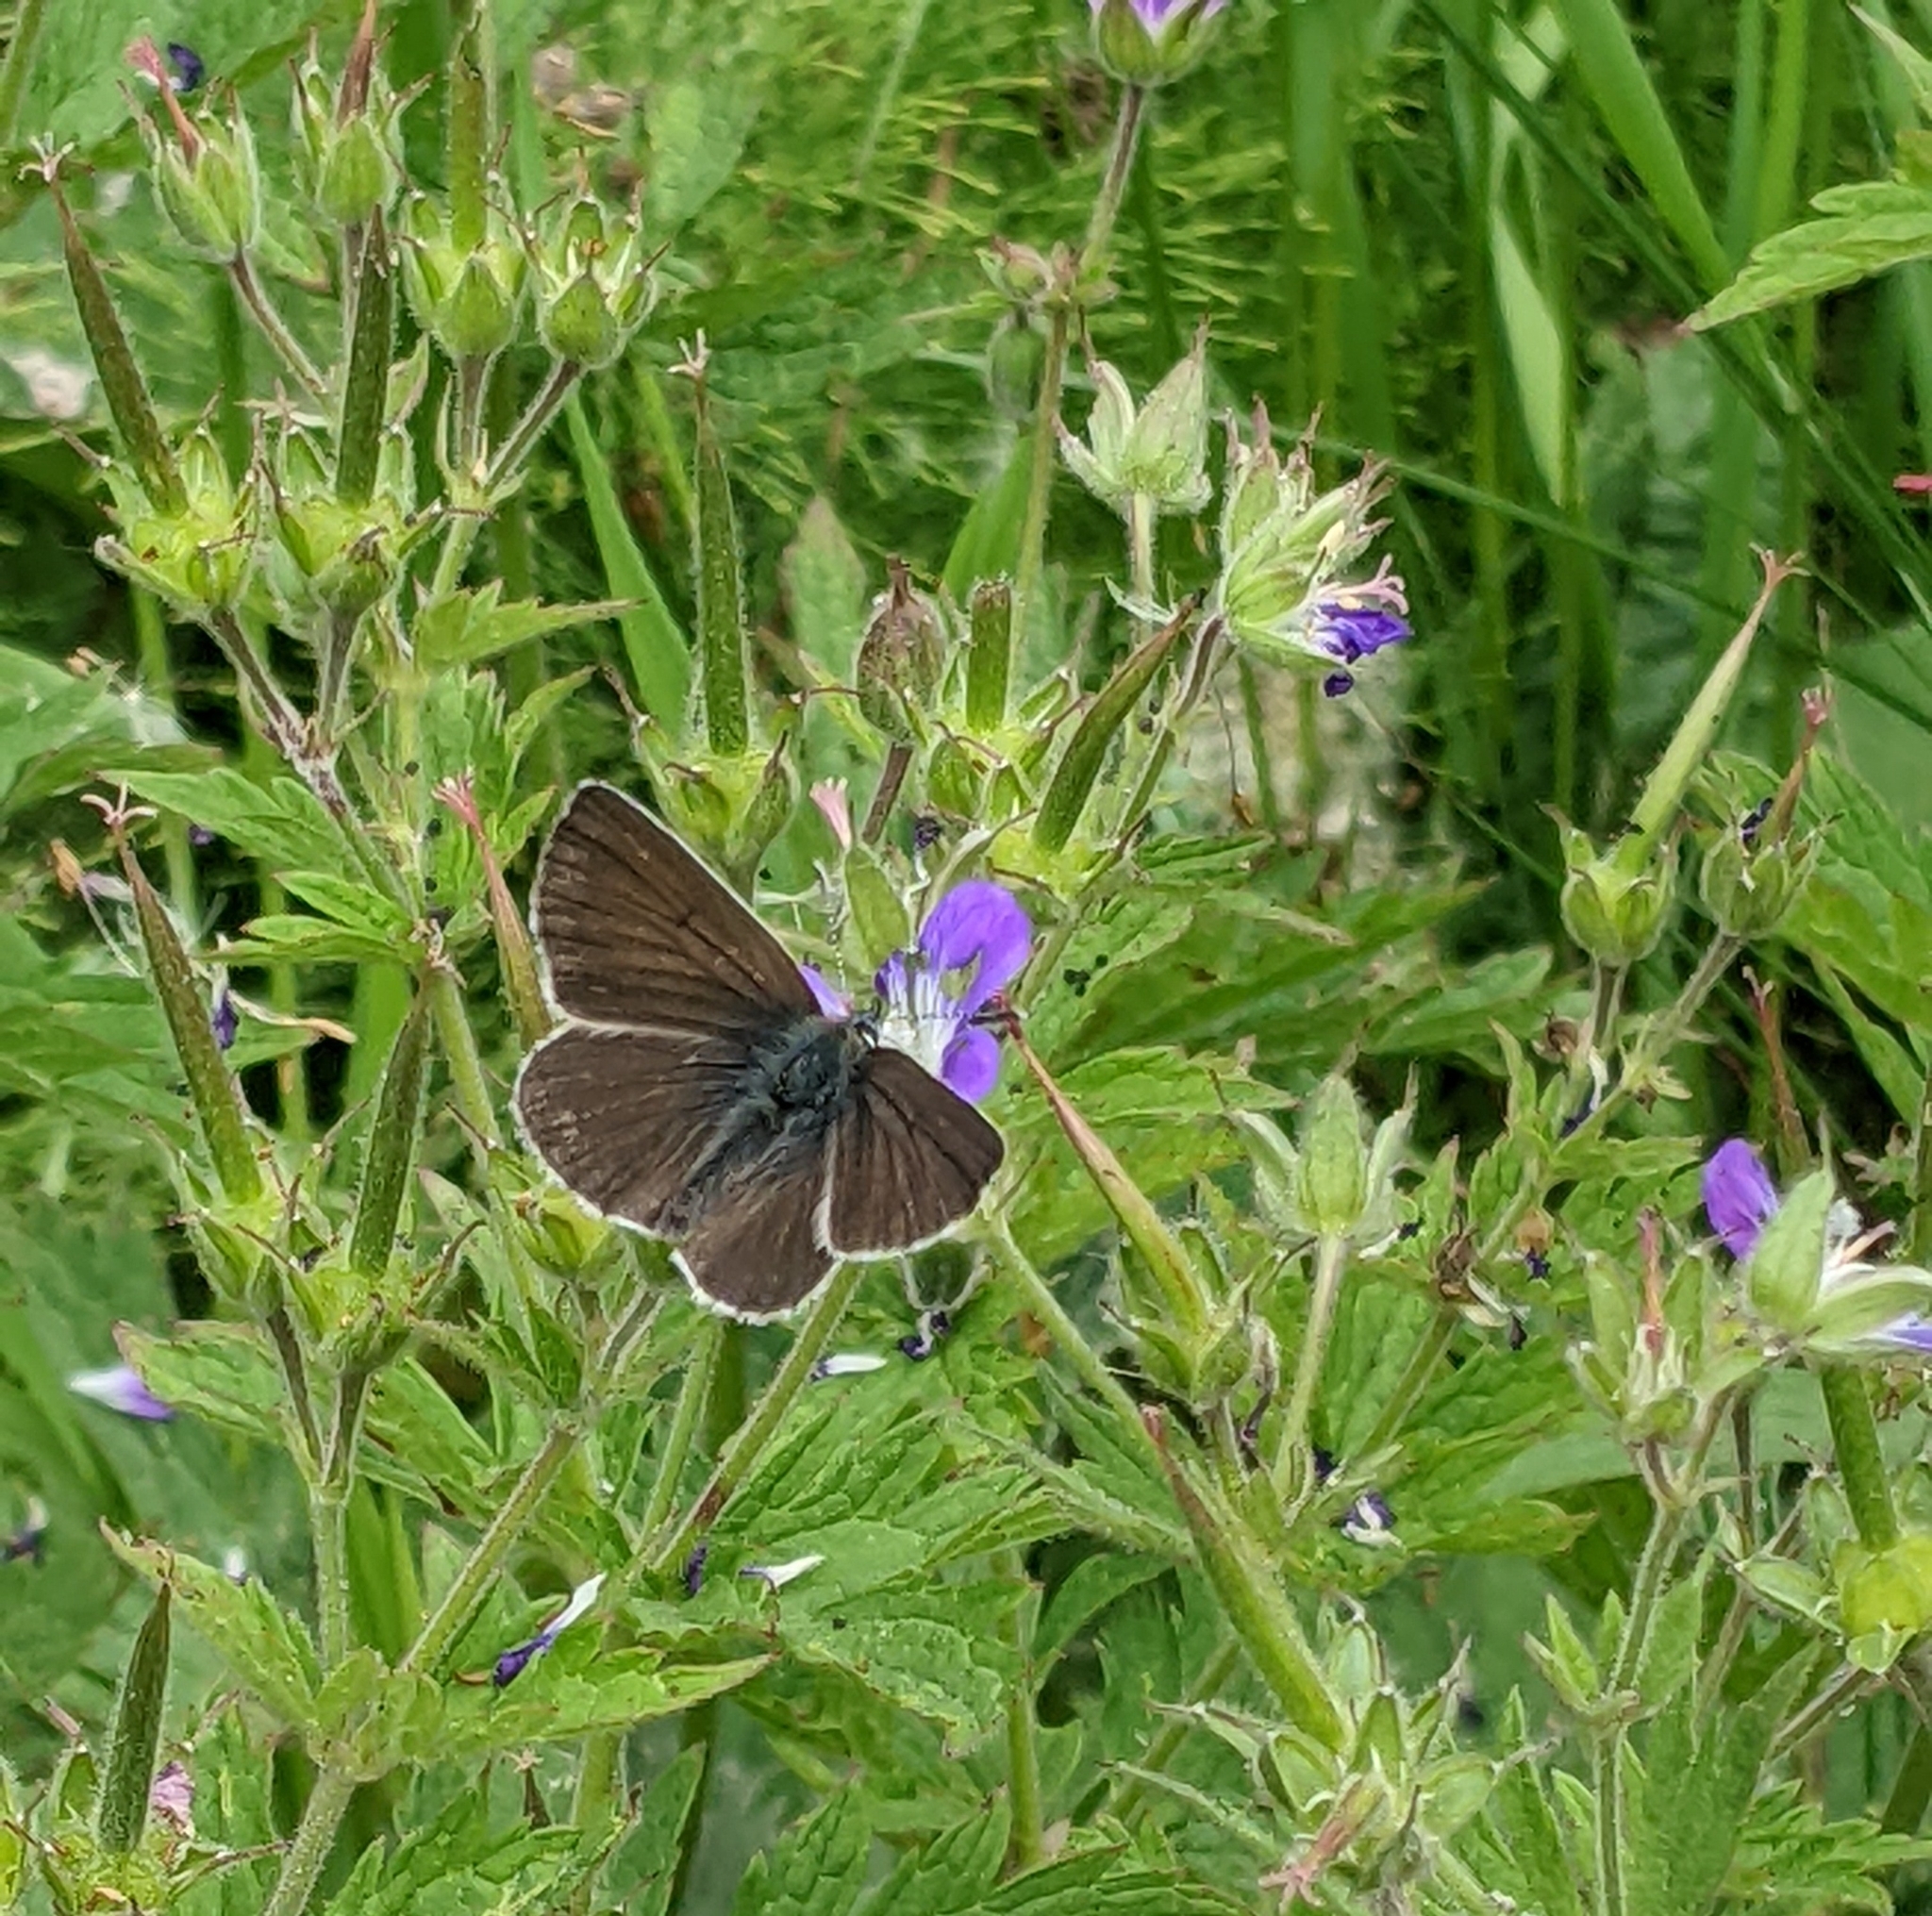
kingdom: Animalia
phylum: Arthropoda
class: Insecta
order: Lepidoptera
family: Lycaenidae
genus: Eumedonia
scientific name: Eumedonia eumedon
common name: Geranium argus
